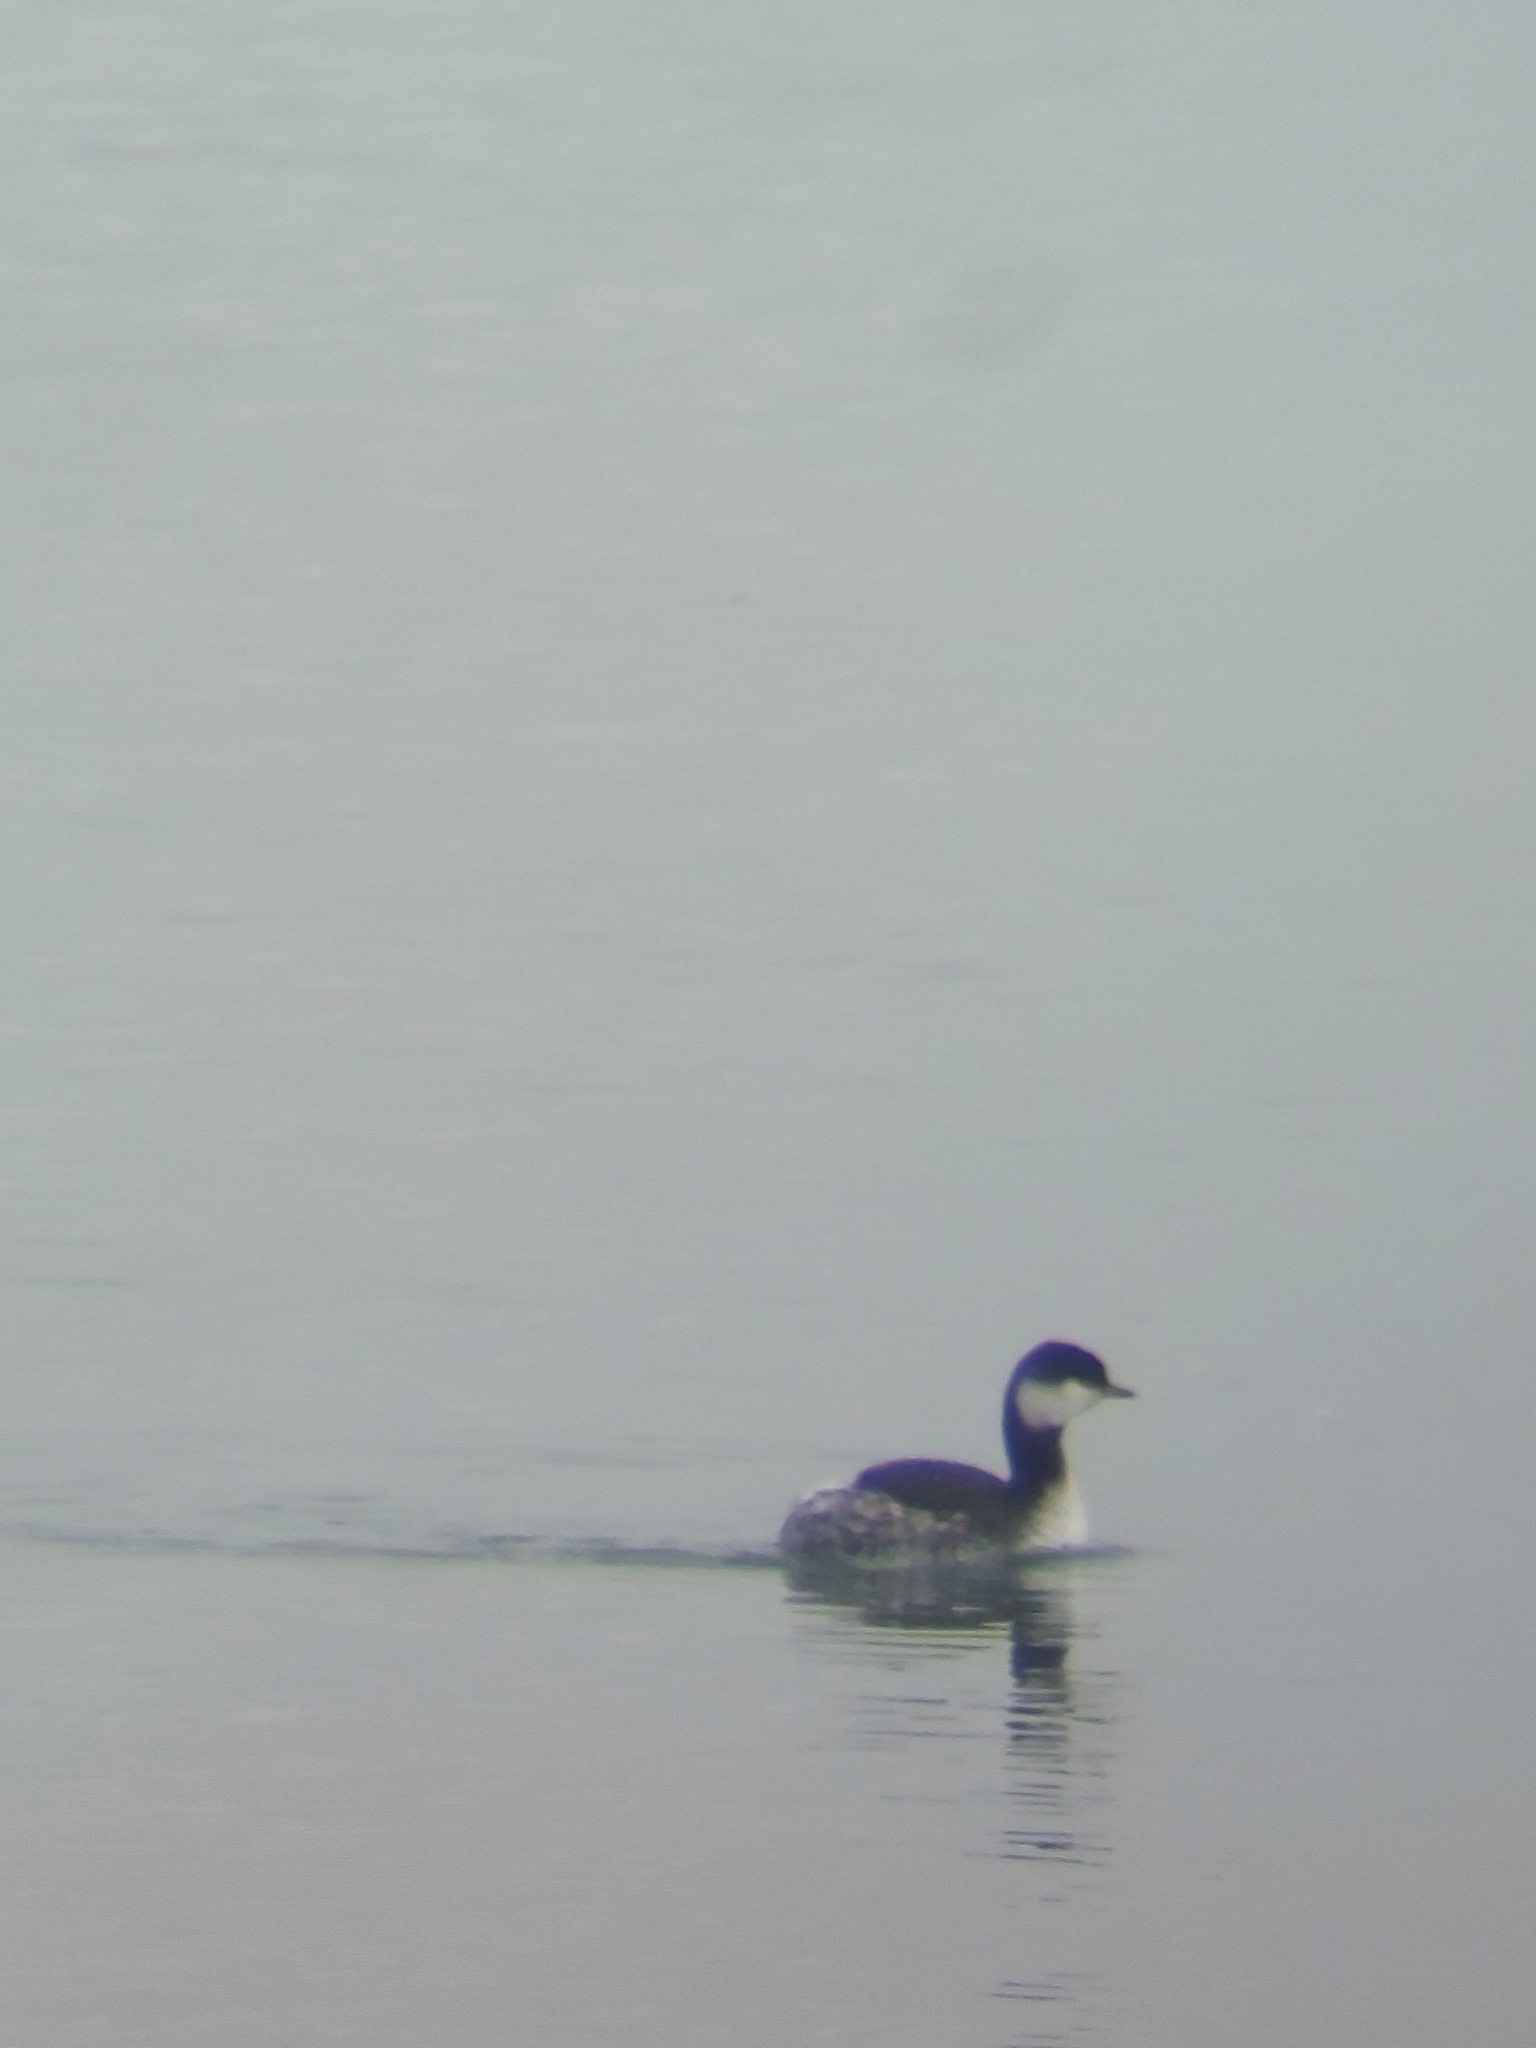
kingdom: Animalia
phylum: Chordata
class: Aves
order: Podicipediformes
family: Podicipedidae
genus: Podiceps
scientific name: Podiceps auritus
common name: Horned grebe
